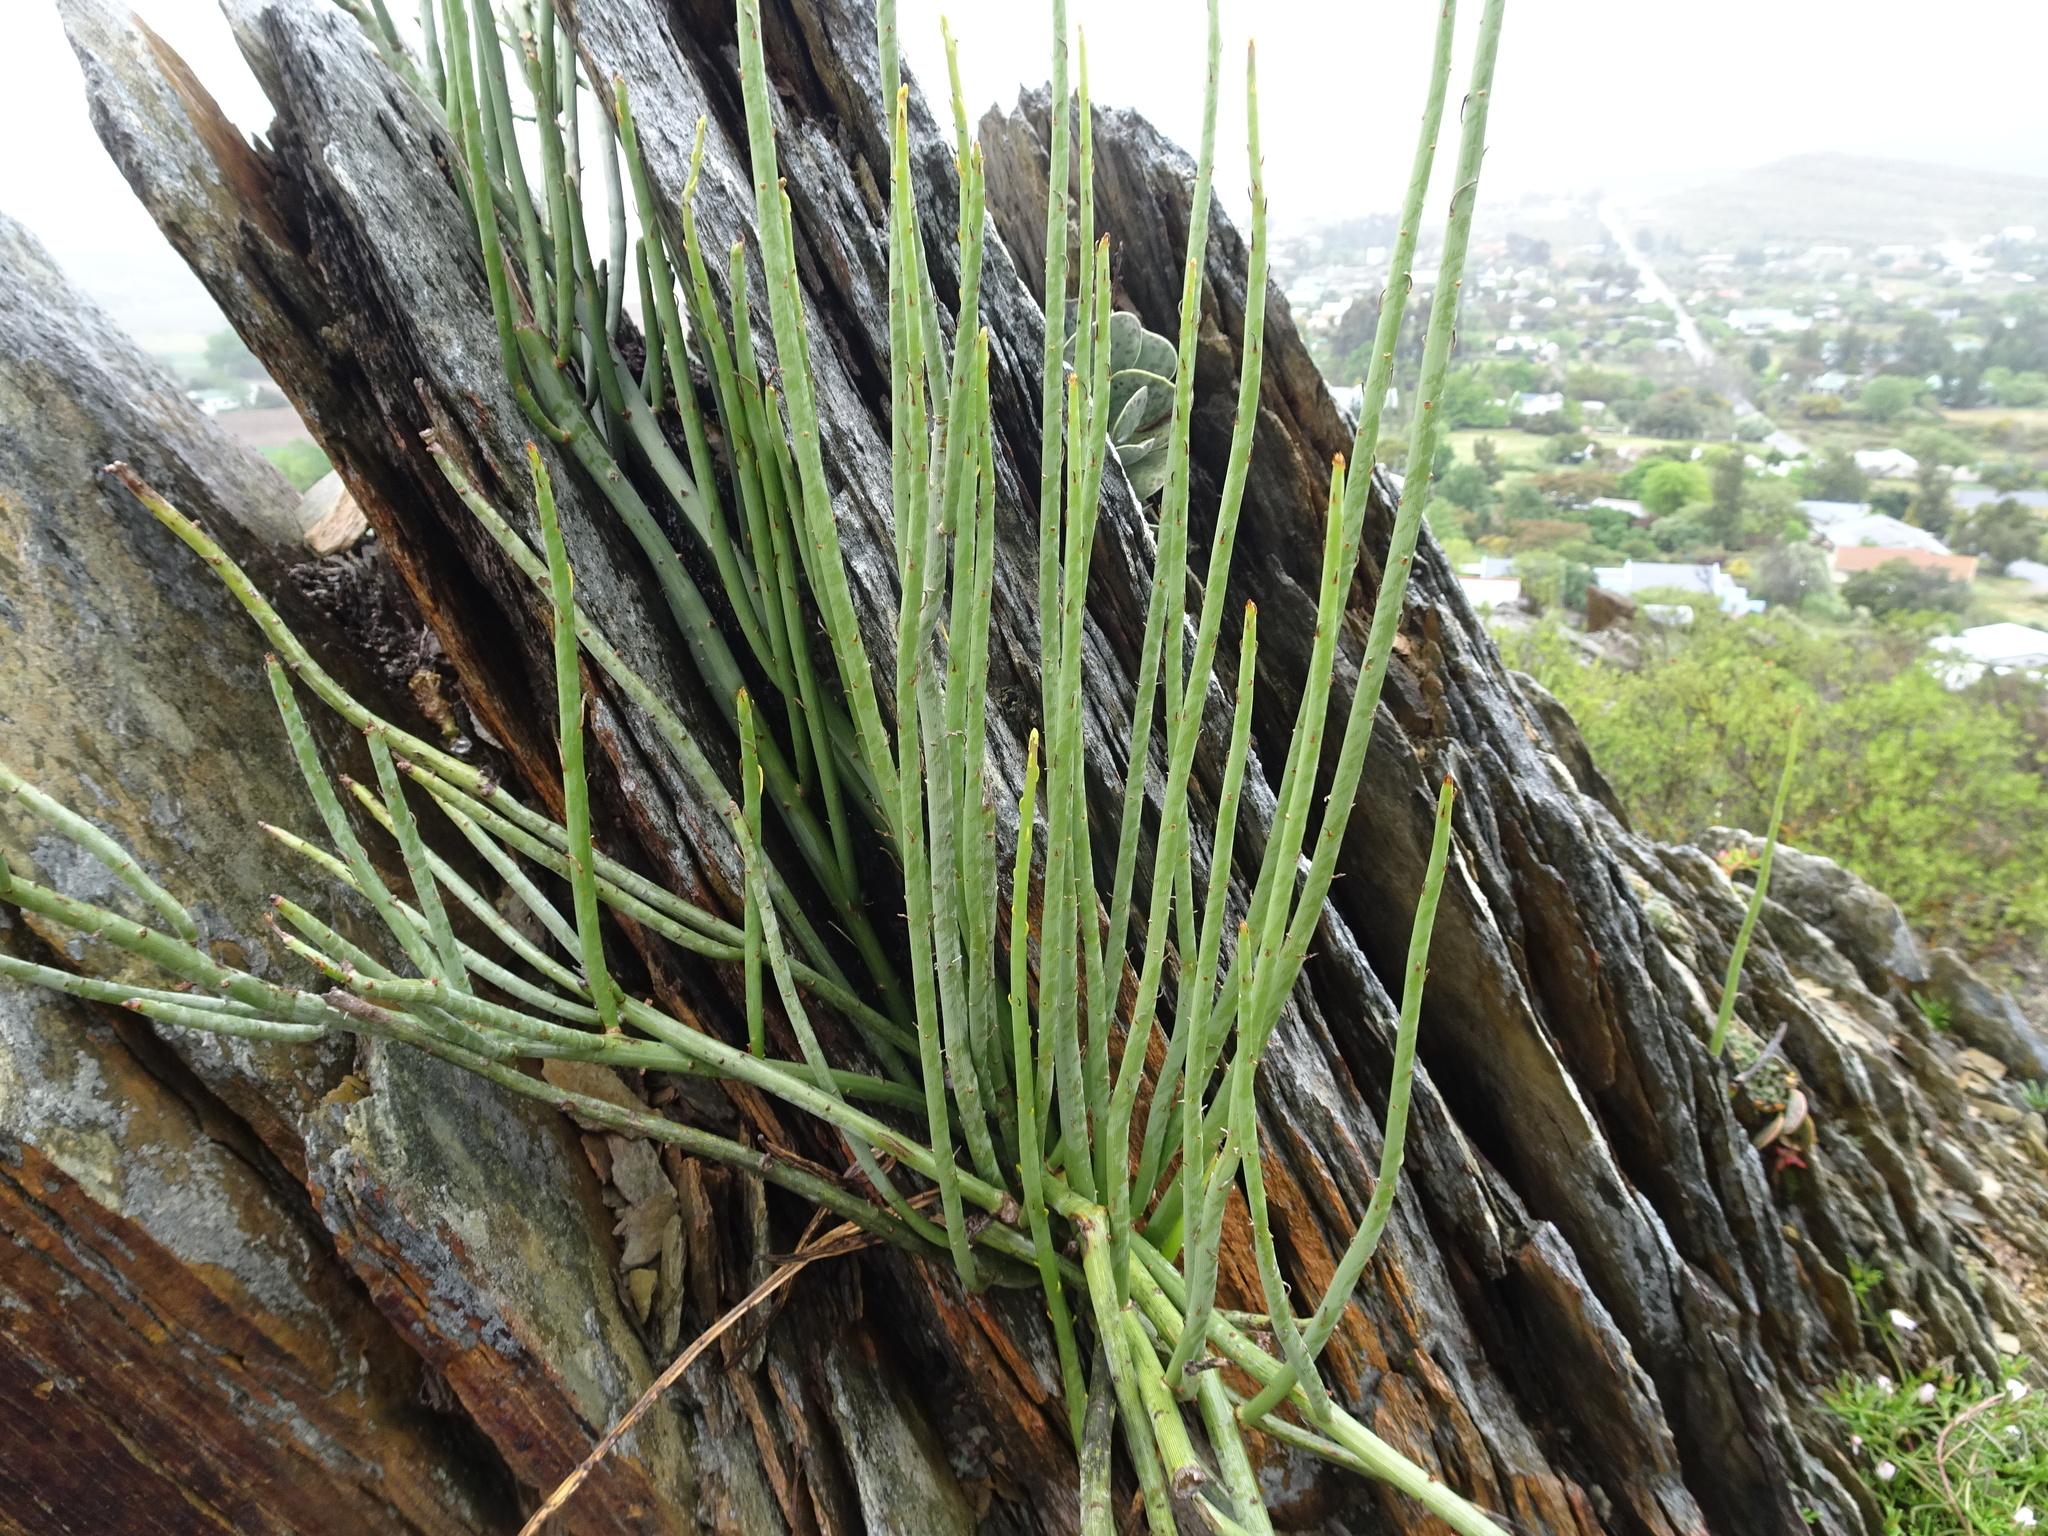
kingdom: Plantae
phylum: Tracheophyta
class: Magnoliopsida
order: Asterales
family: Asteraceae
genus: Senecio
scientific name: Senecio junceus
